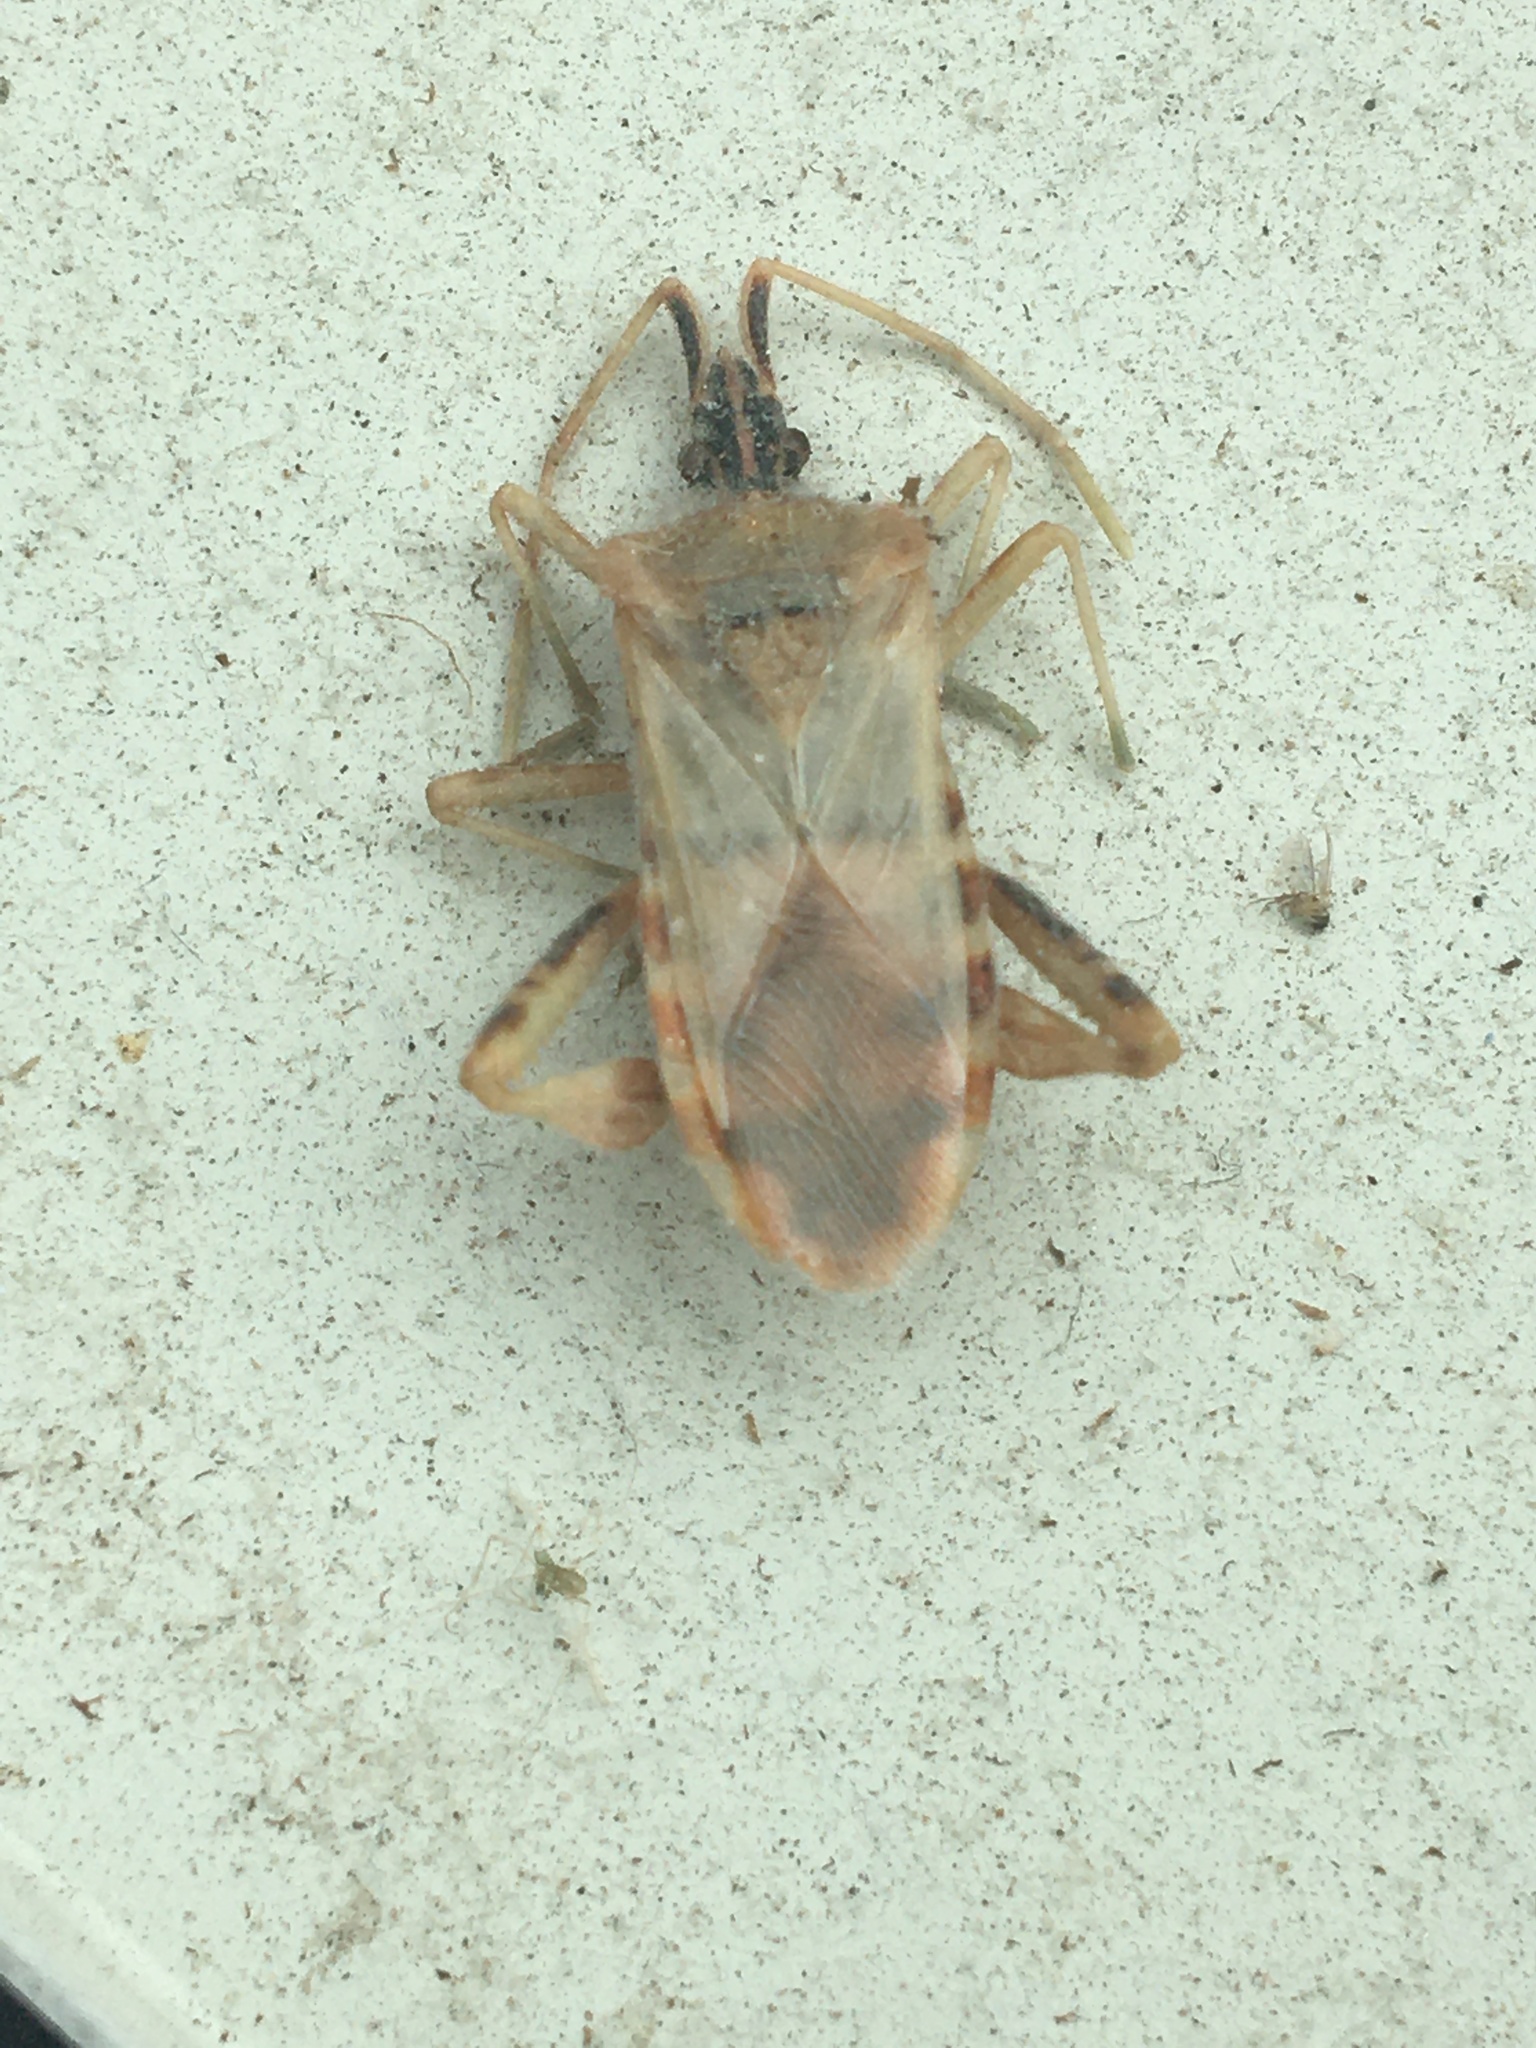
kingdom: Animalia
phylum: Arthropoda
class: Insecta
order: Hemiptera
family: Coreidae
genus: Leptoglossus
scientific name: Leptoglossus occidentalis
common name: Western conifer-seed bug
